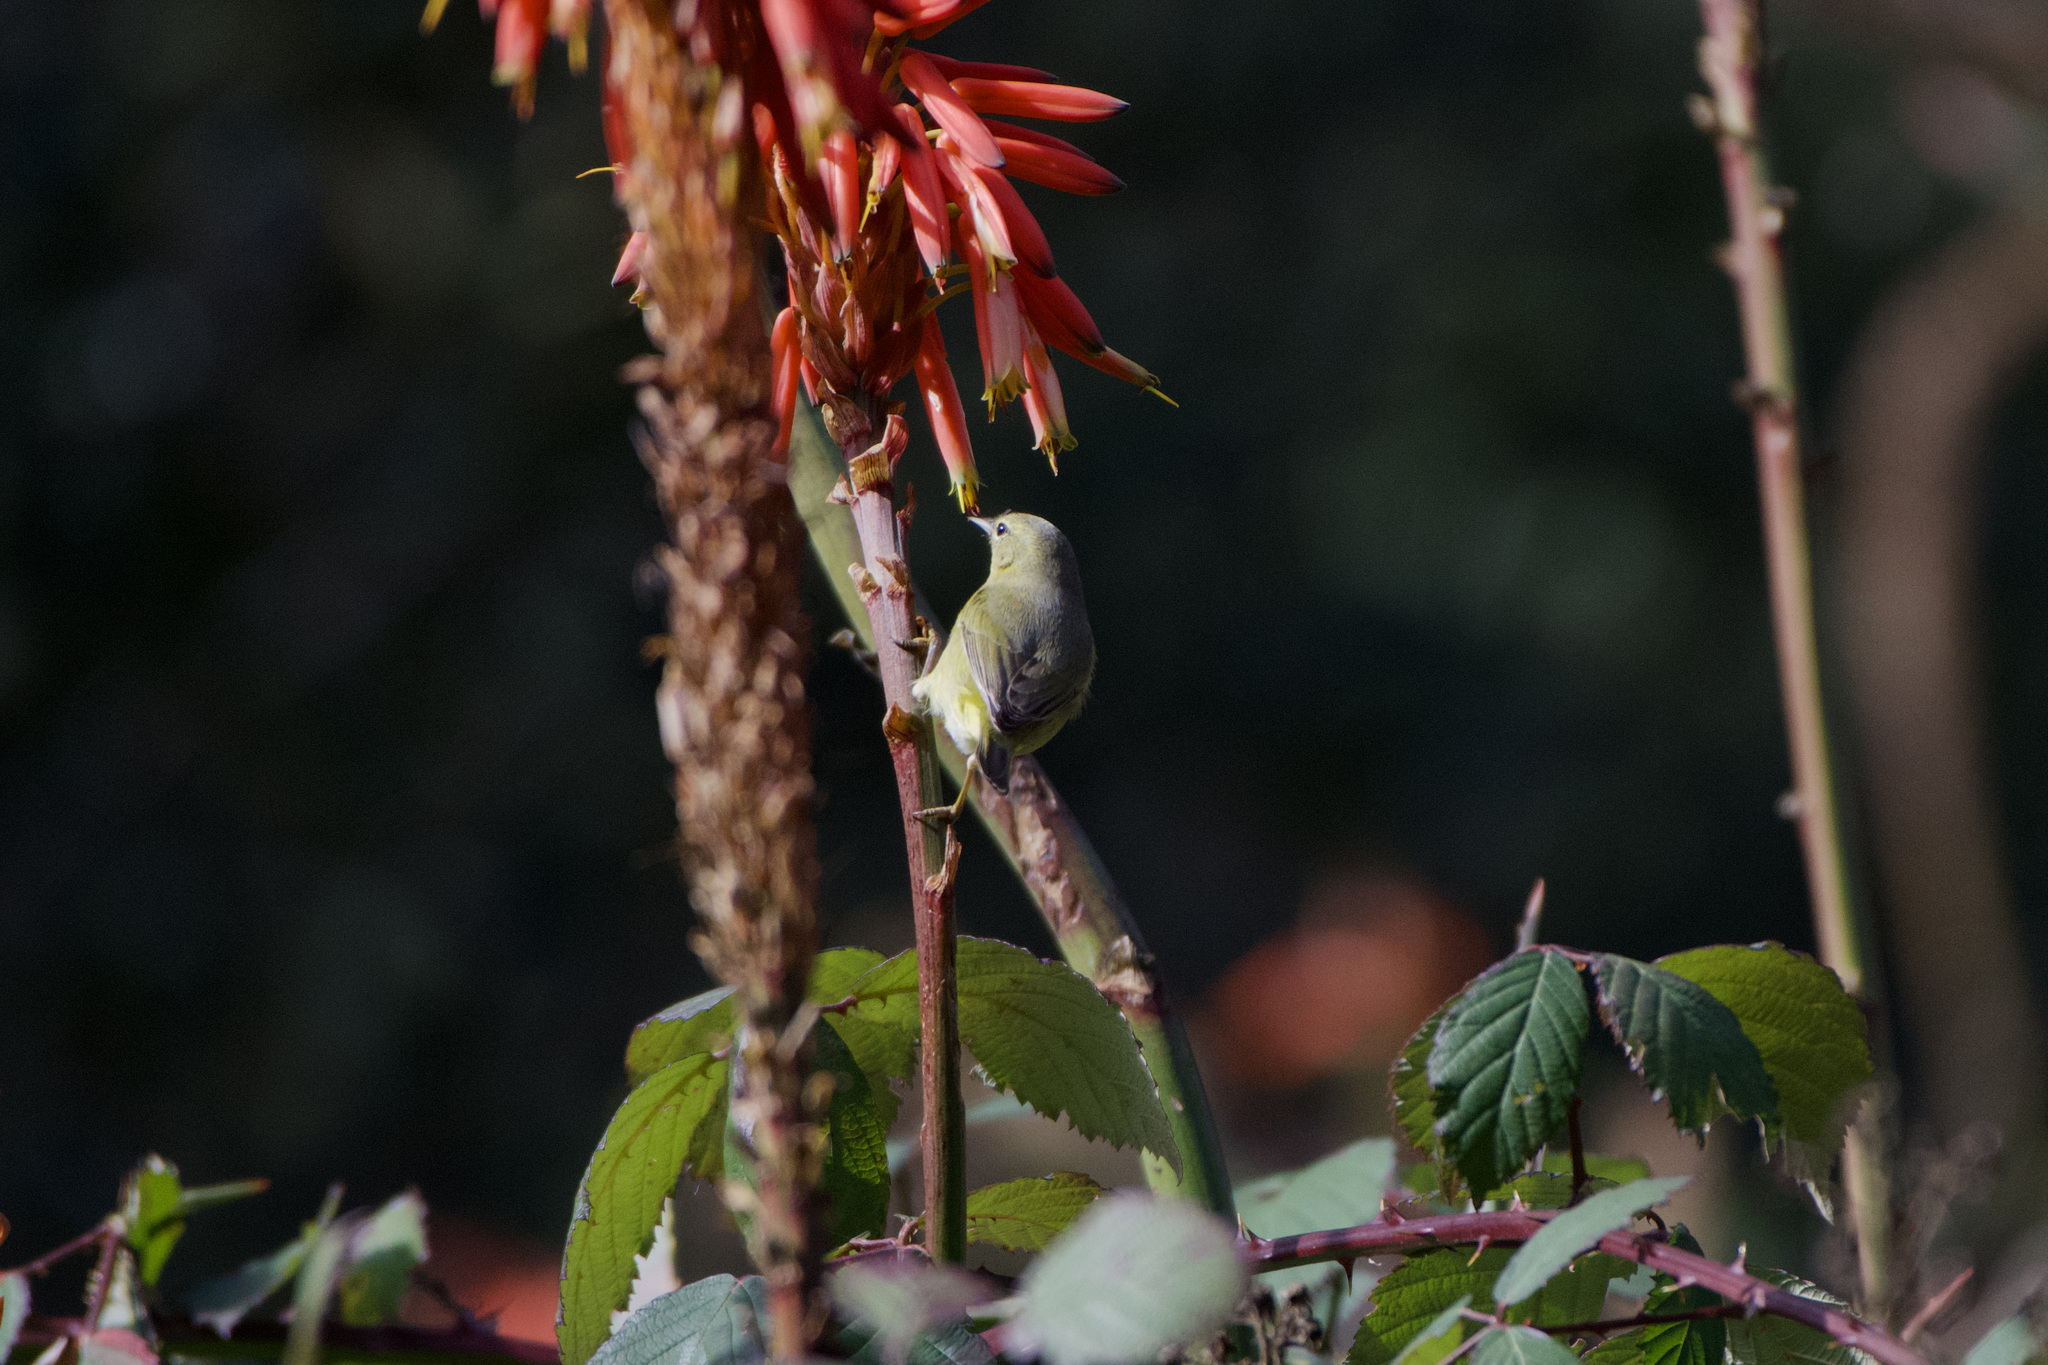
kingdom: Animalia
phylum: Chordata
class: Aves
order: Passeriformes
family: Parulidae
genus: Leiothlypis
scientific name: Leiothlypis celata
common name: Orange-crowned warbler
